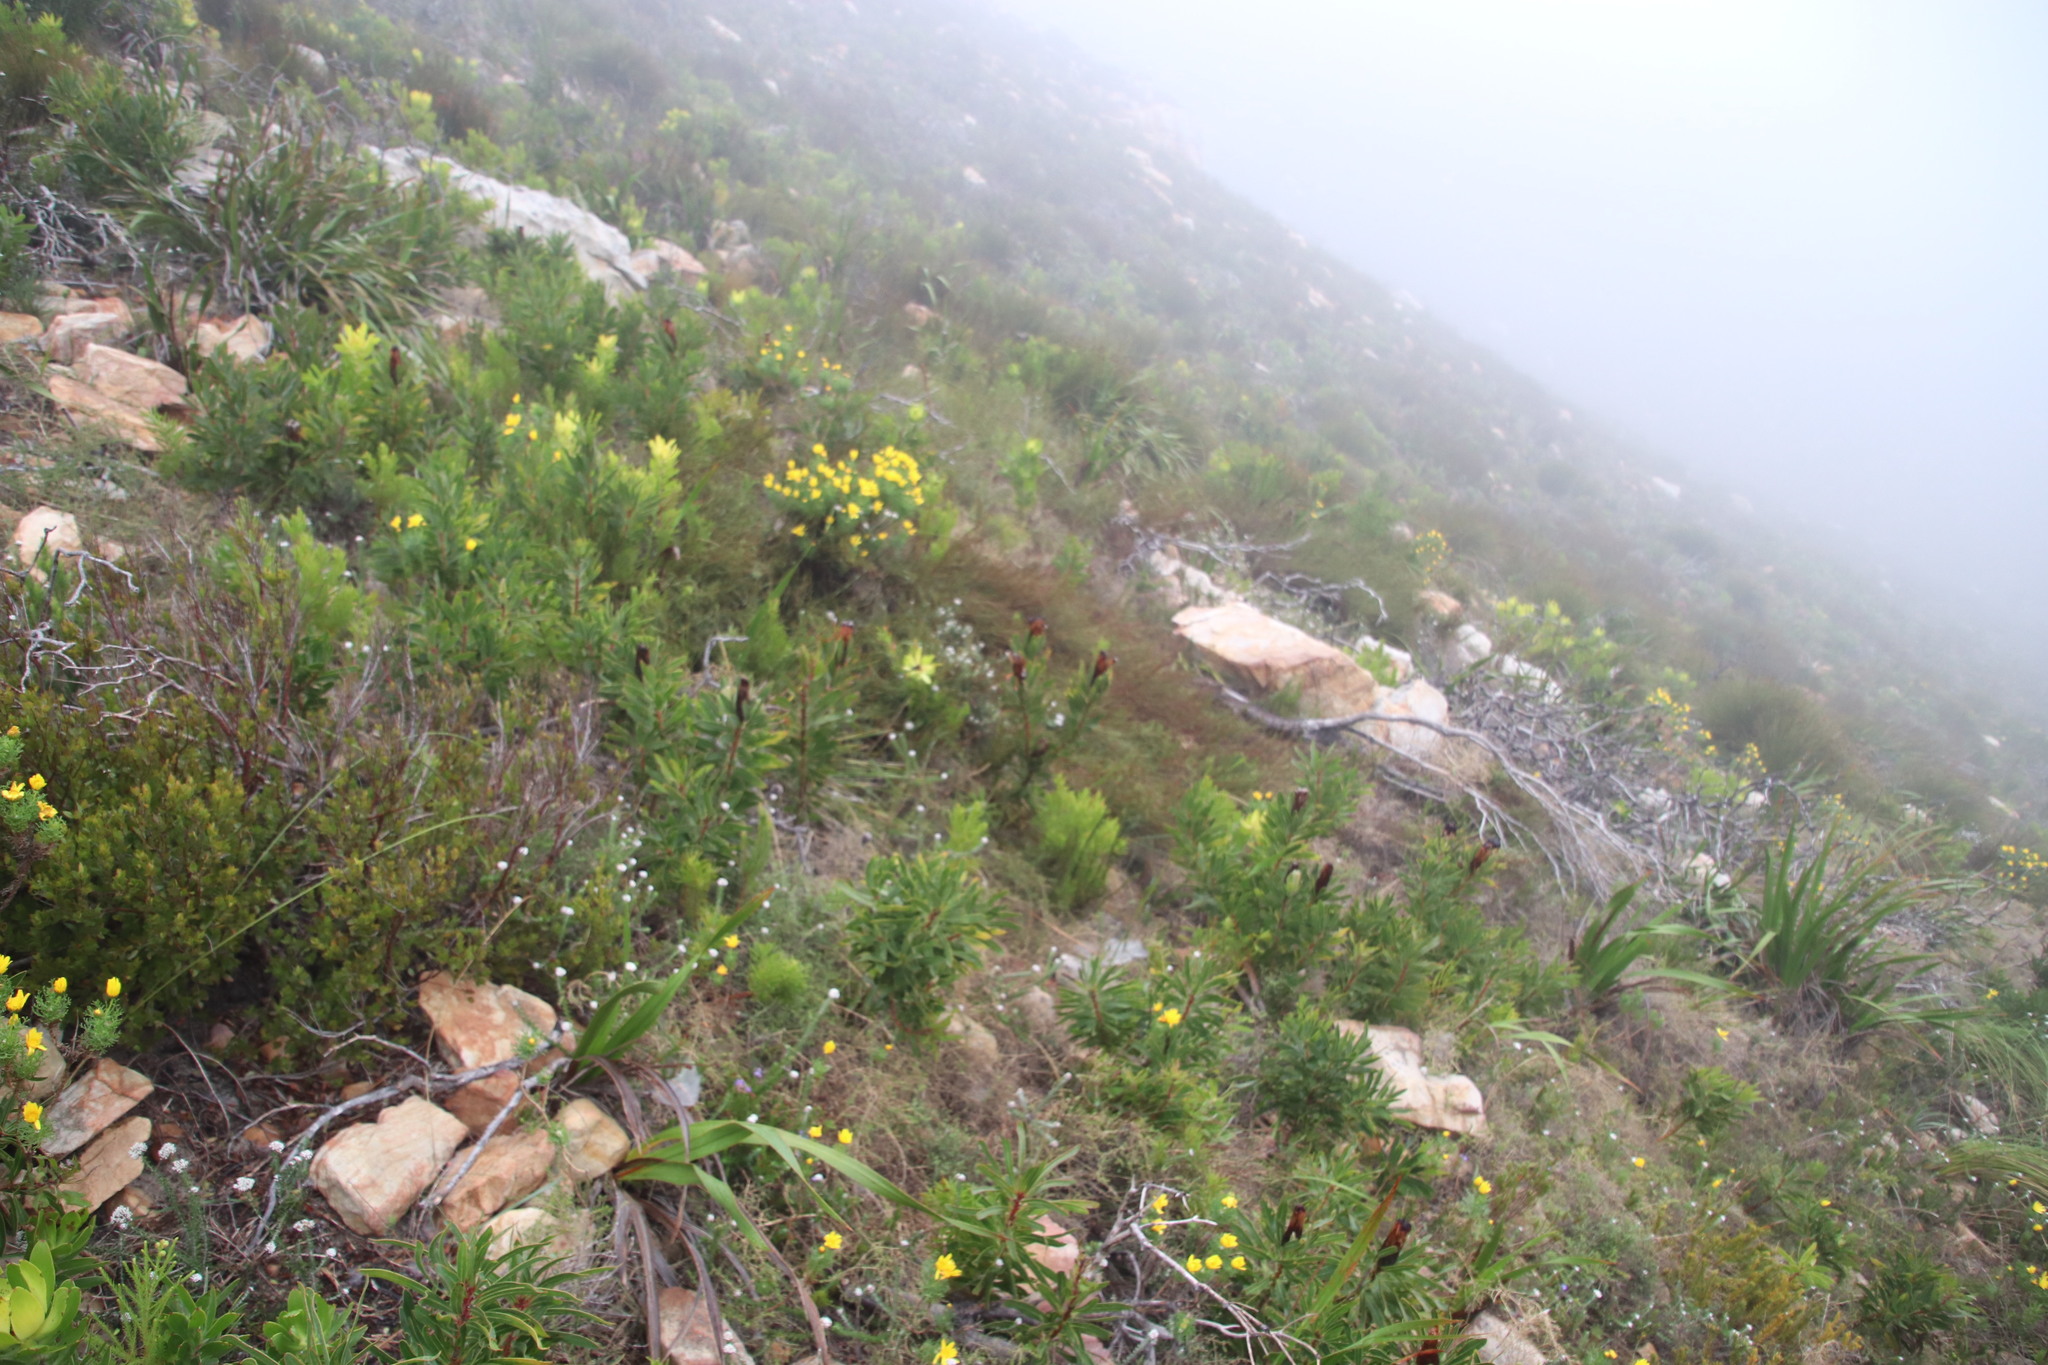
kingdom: Plantae
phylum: Tracheophyta
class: Magnoliopsida
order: Proteales
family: Proteaceae
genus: Protea
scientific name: Protea lepidocarpodendron
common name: Black-bearded protea
